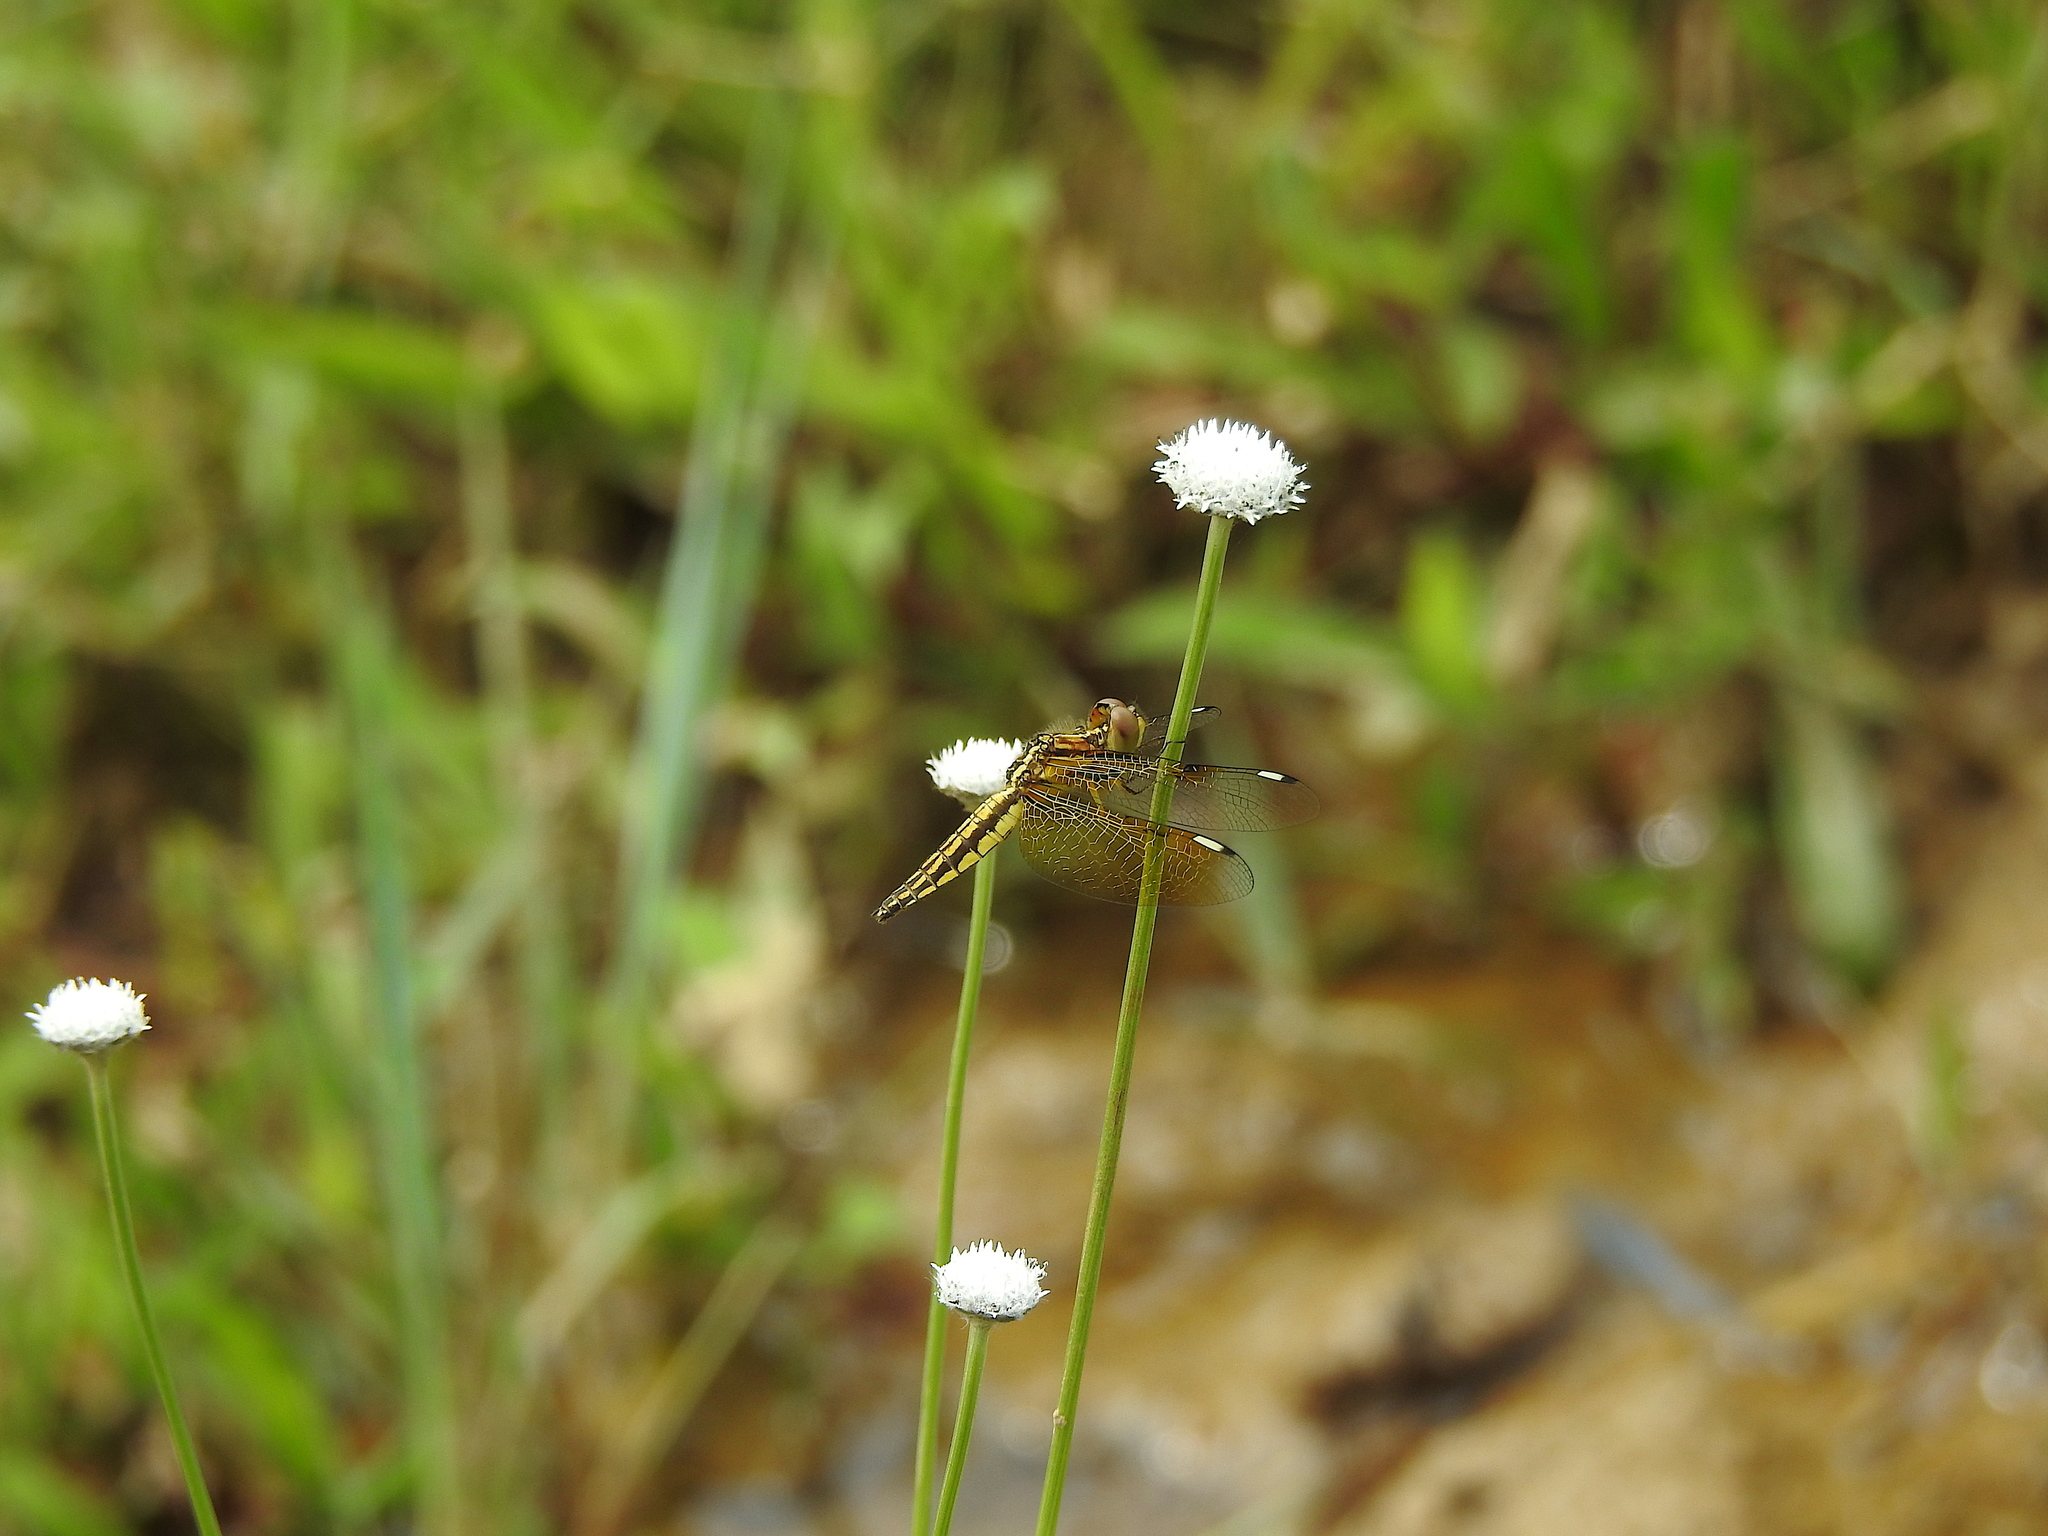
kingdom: Animalia
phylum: Arthropoda
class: Insecta
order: Odonata
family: Libellulidae
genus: Palpopleura
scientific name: Palpopleura sexmaculata
